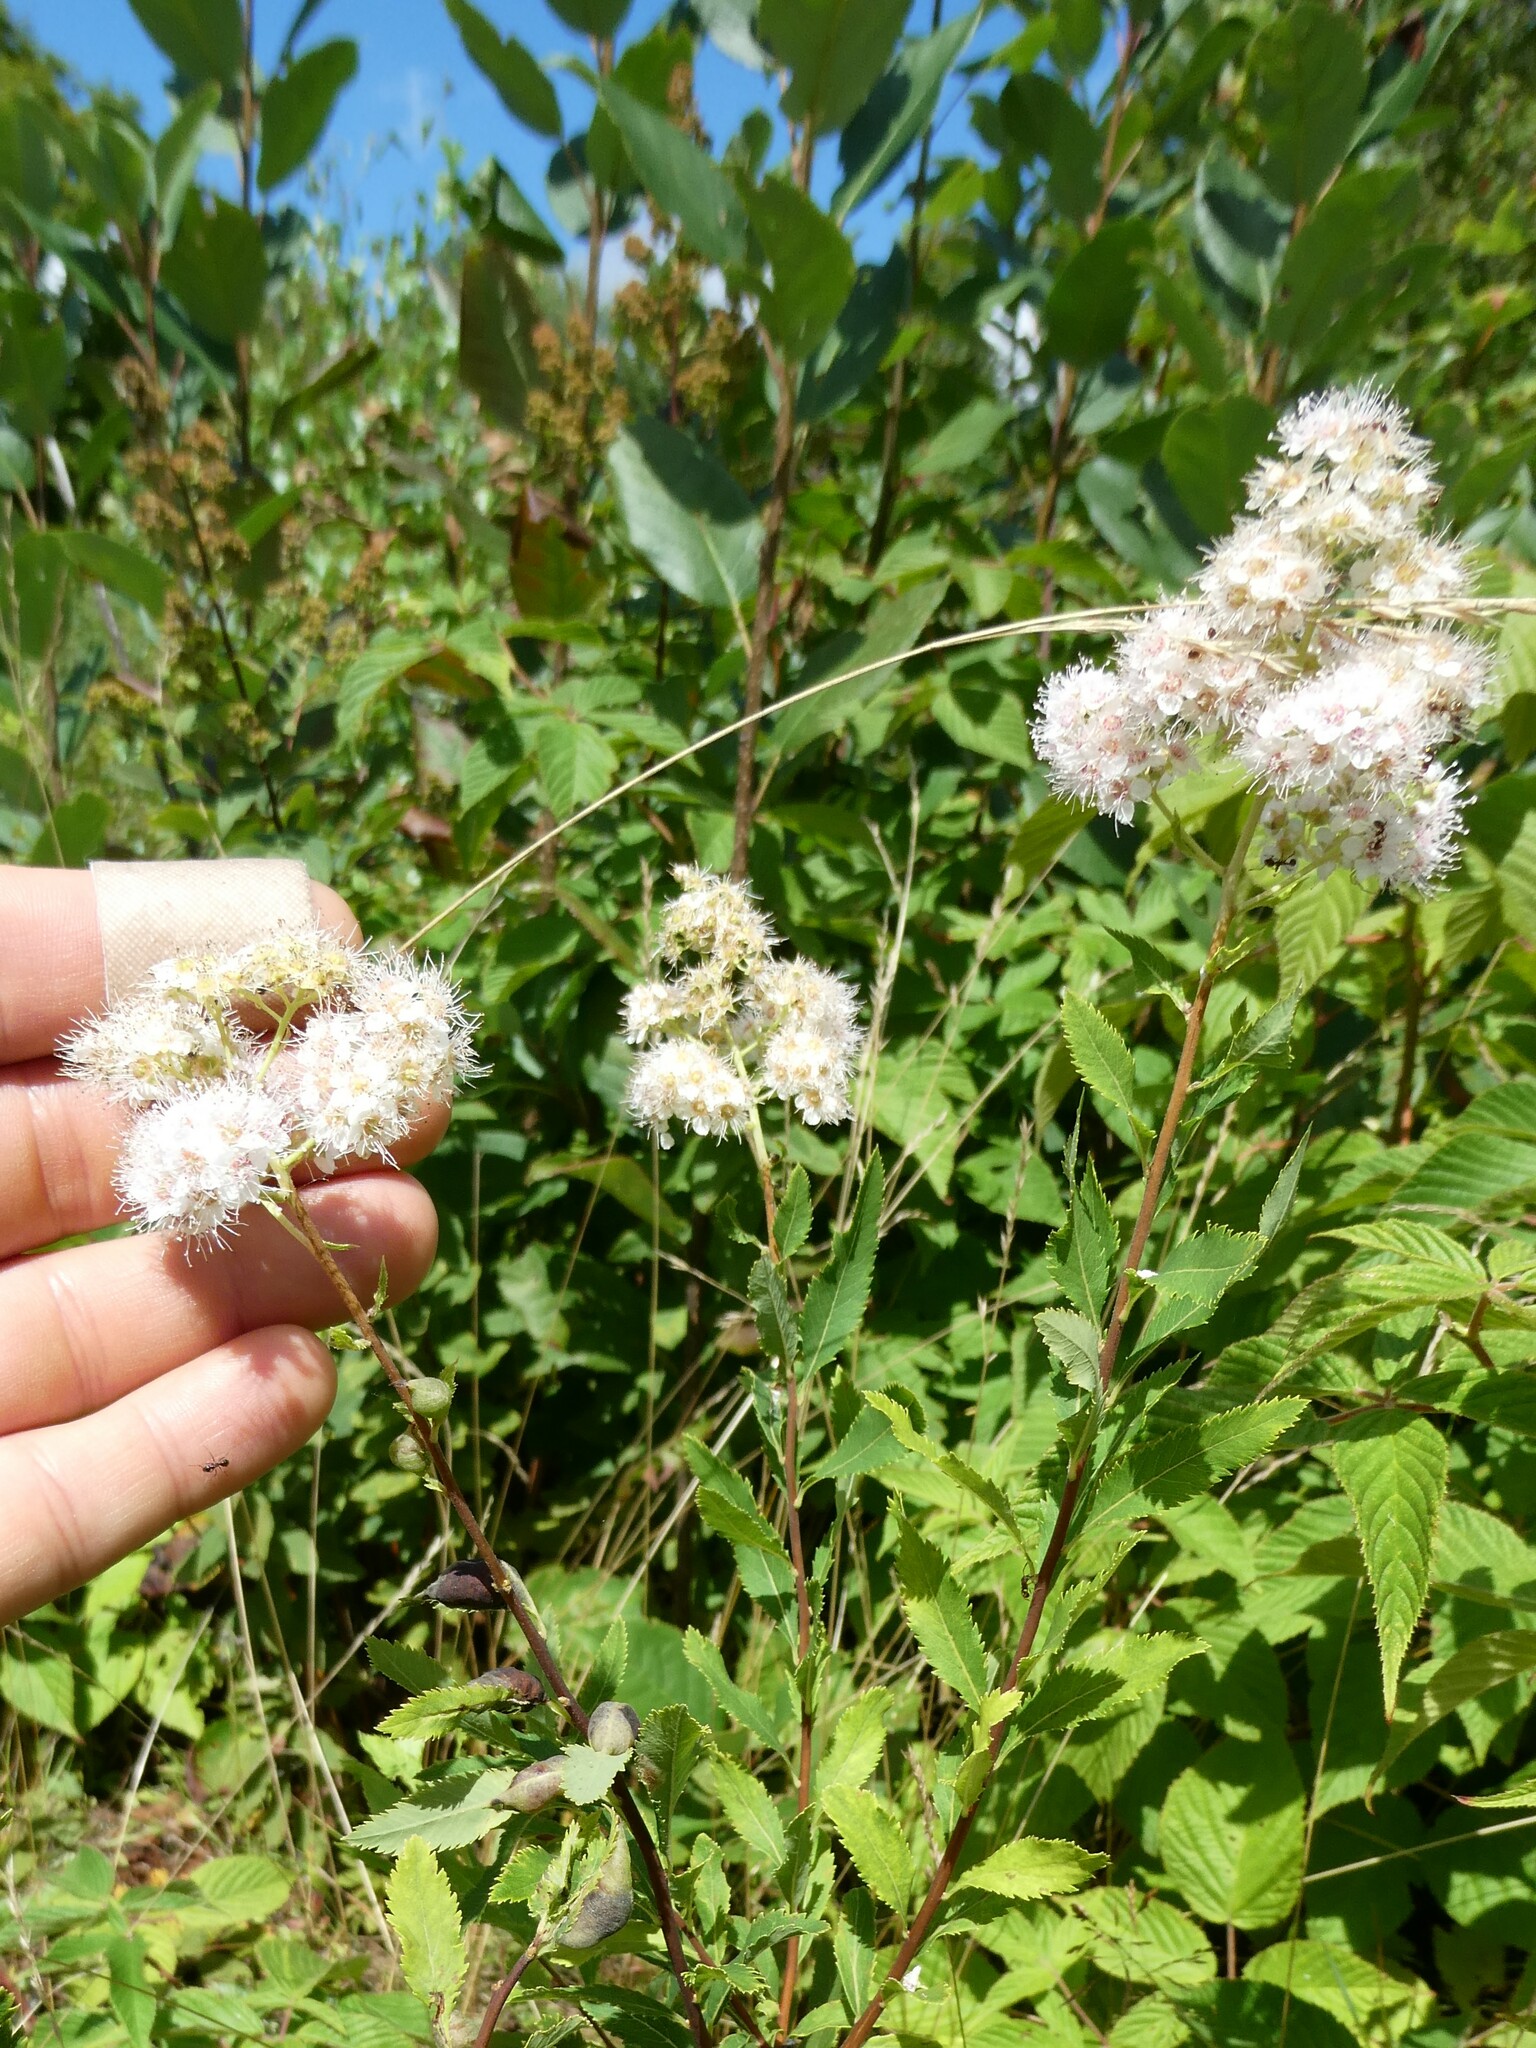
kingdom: Animalia
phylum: Arthropoda
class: Insecta
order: Diptera
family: Cecidomyiidae
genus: Dasineura
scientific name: Dasineura salicifoliae
